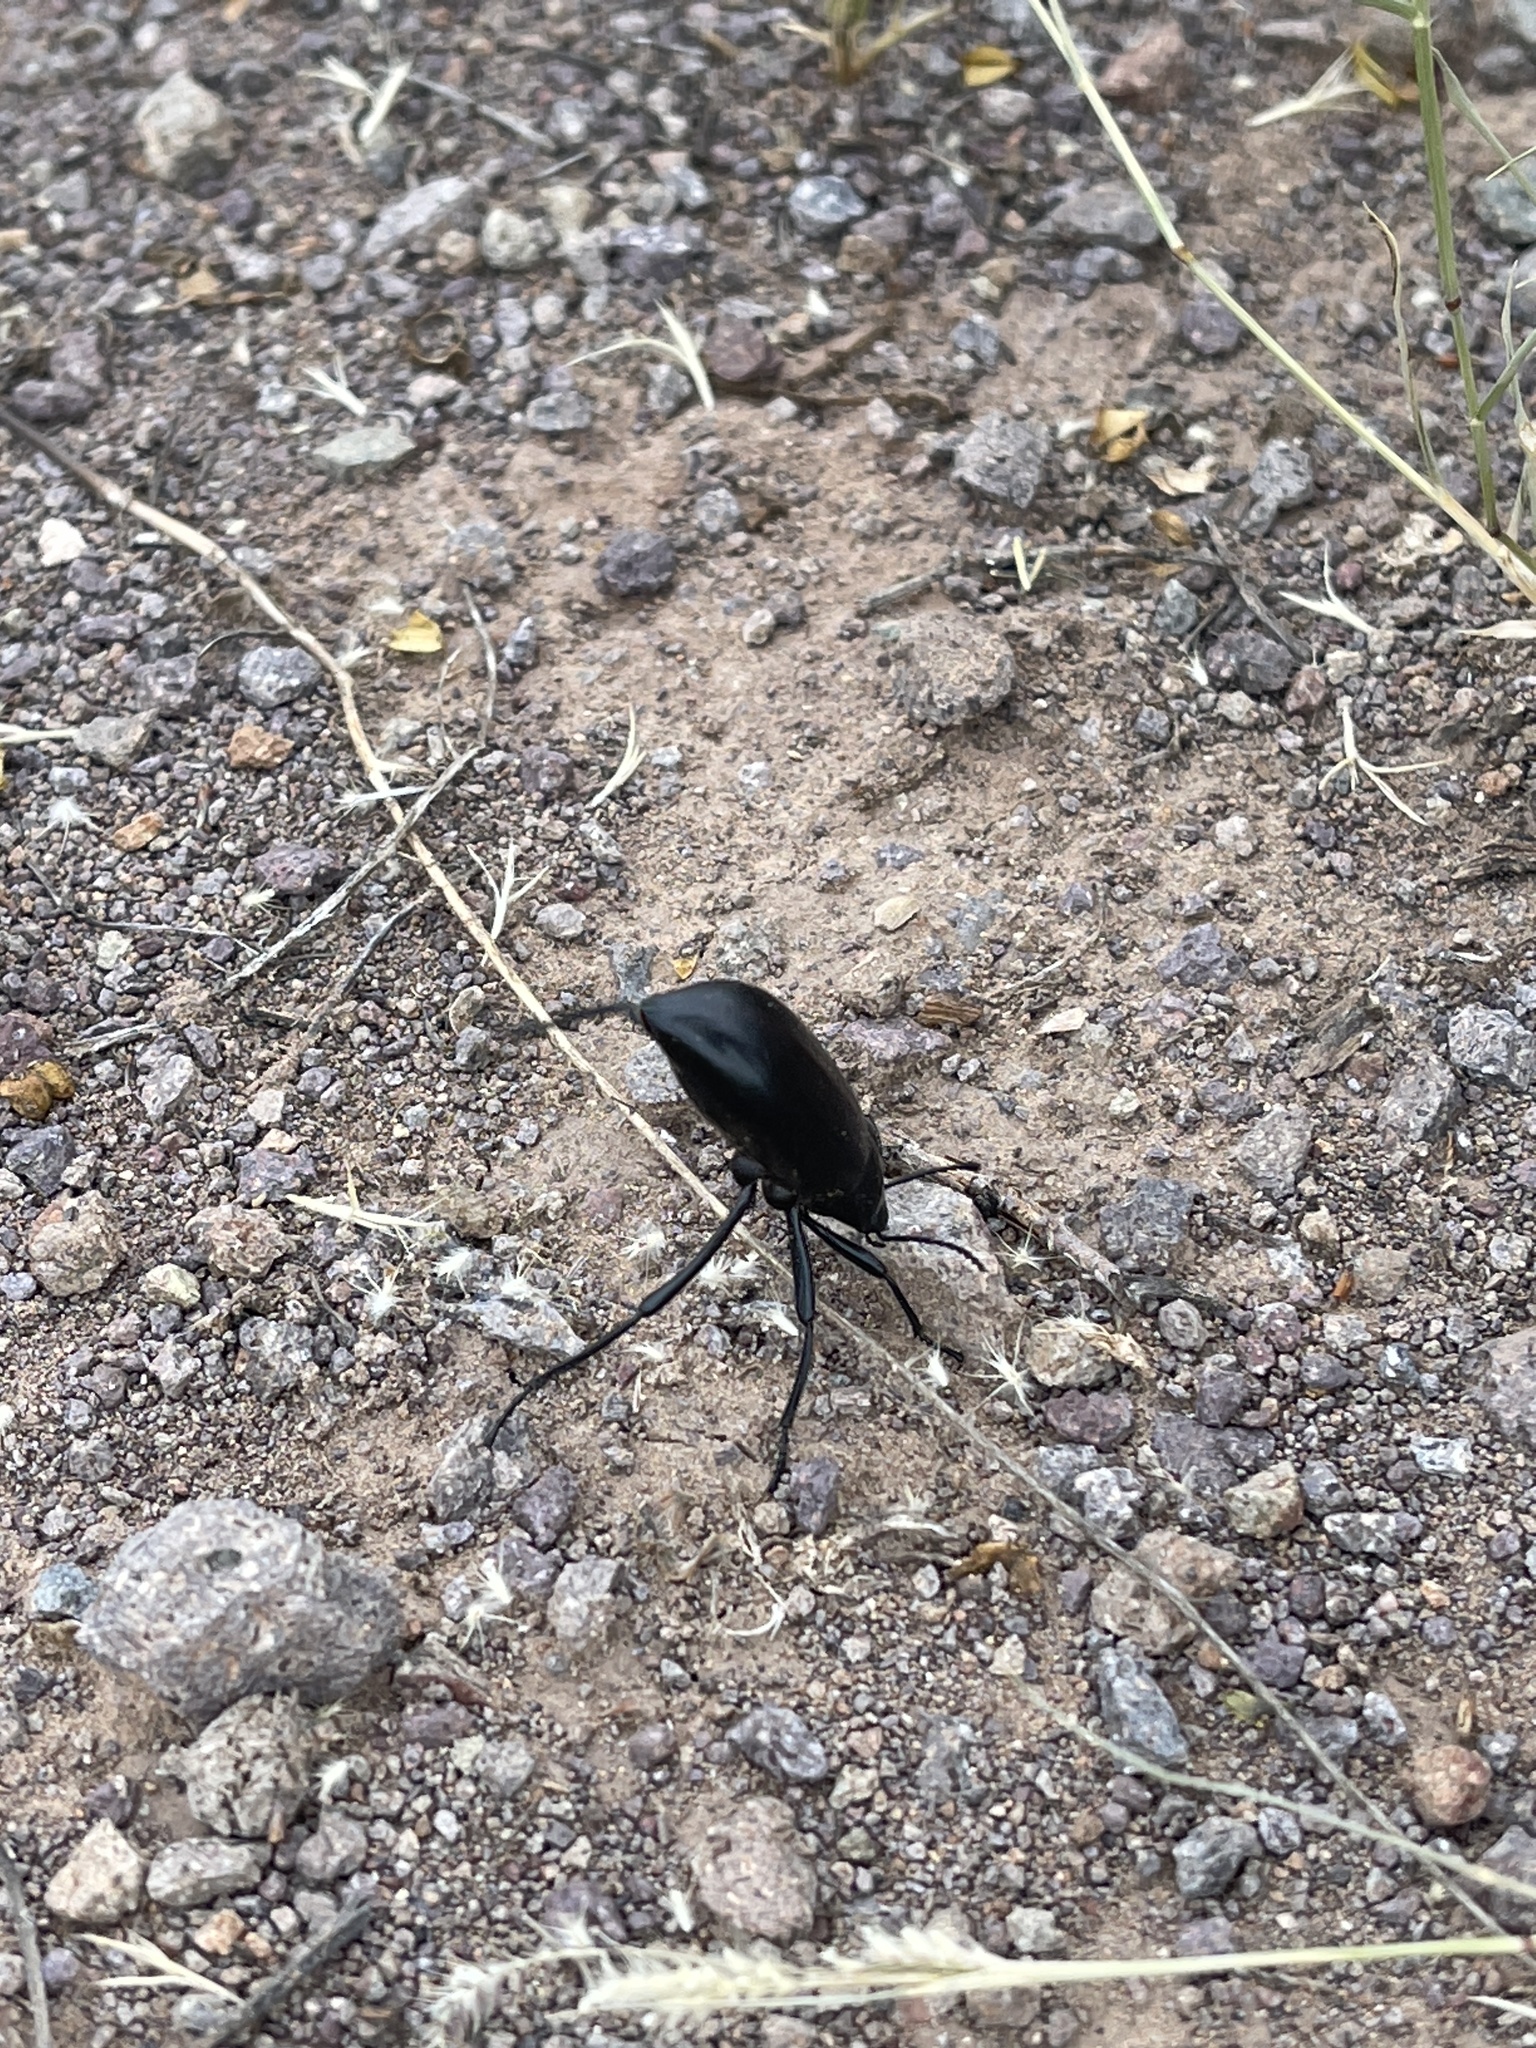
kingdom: Animalia
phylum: Arthropoda
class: Insecta
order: Coleoptera
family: Tenebrionidae
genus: Eleodes
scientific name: Eleodes longicollis
